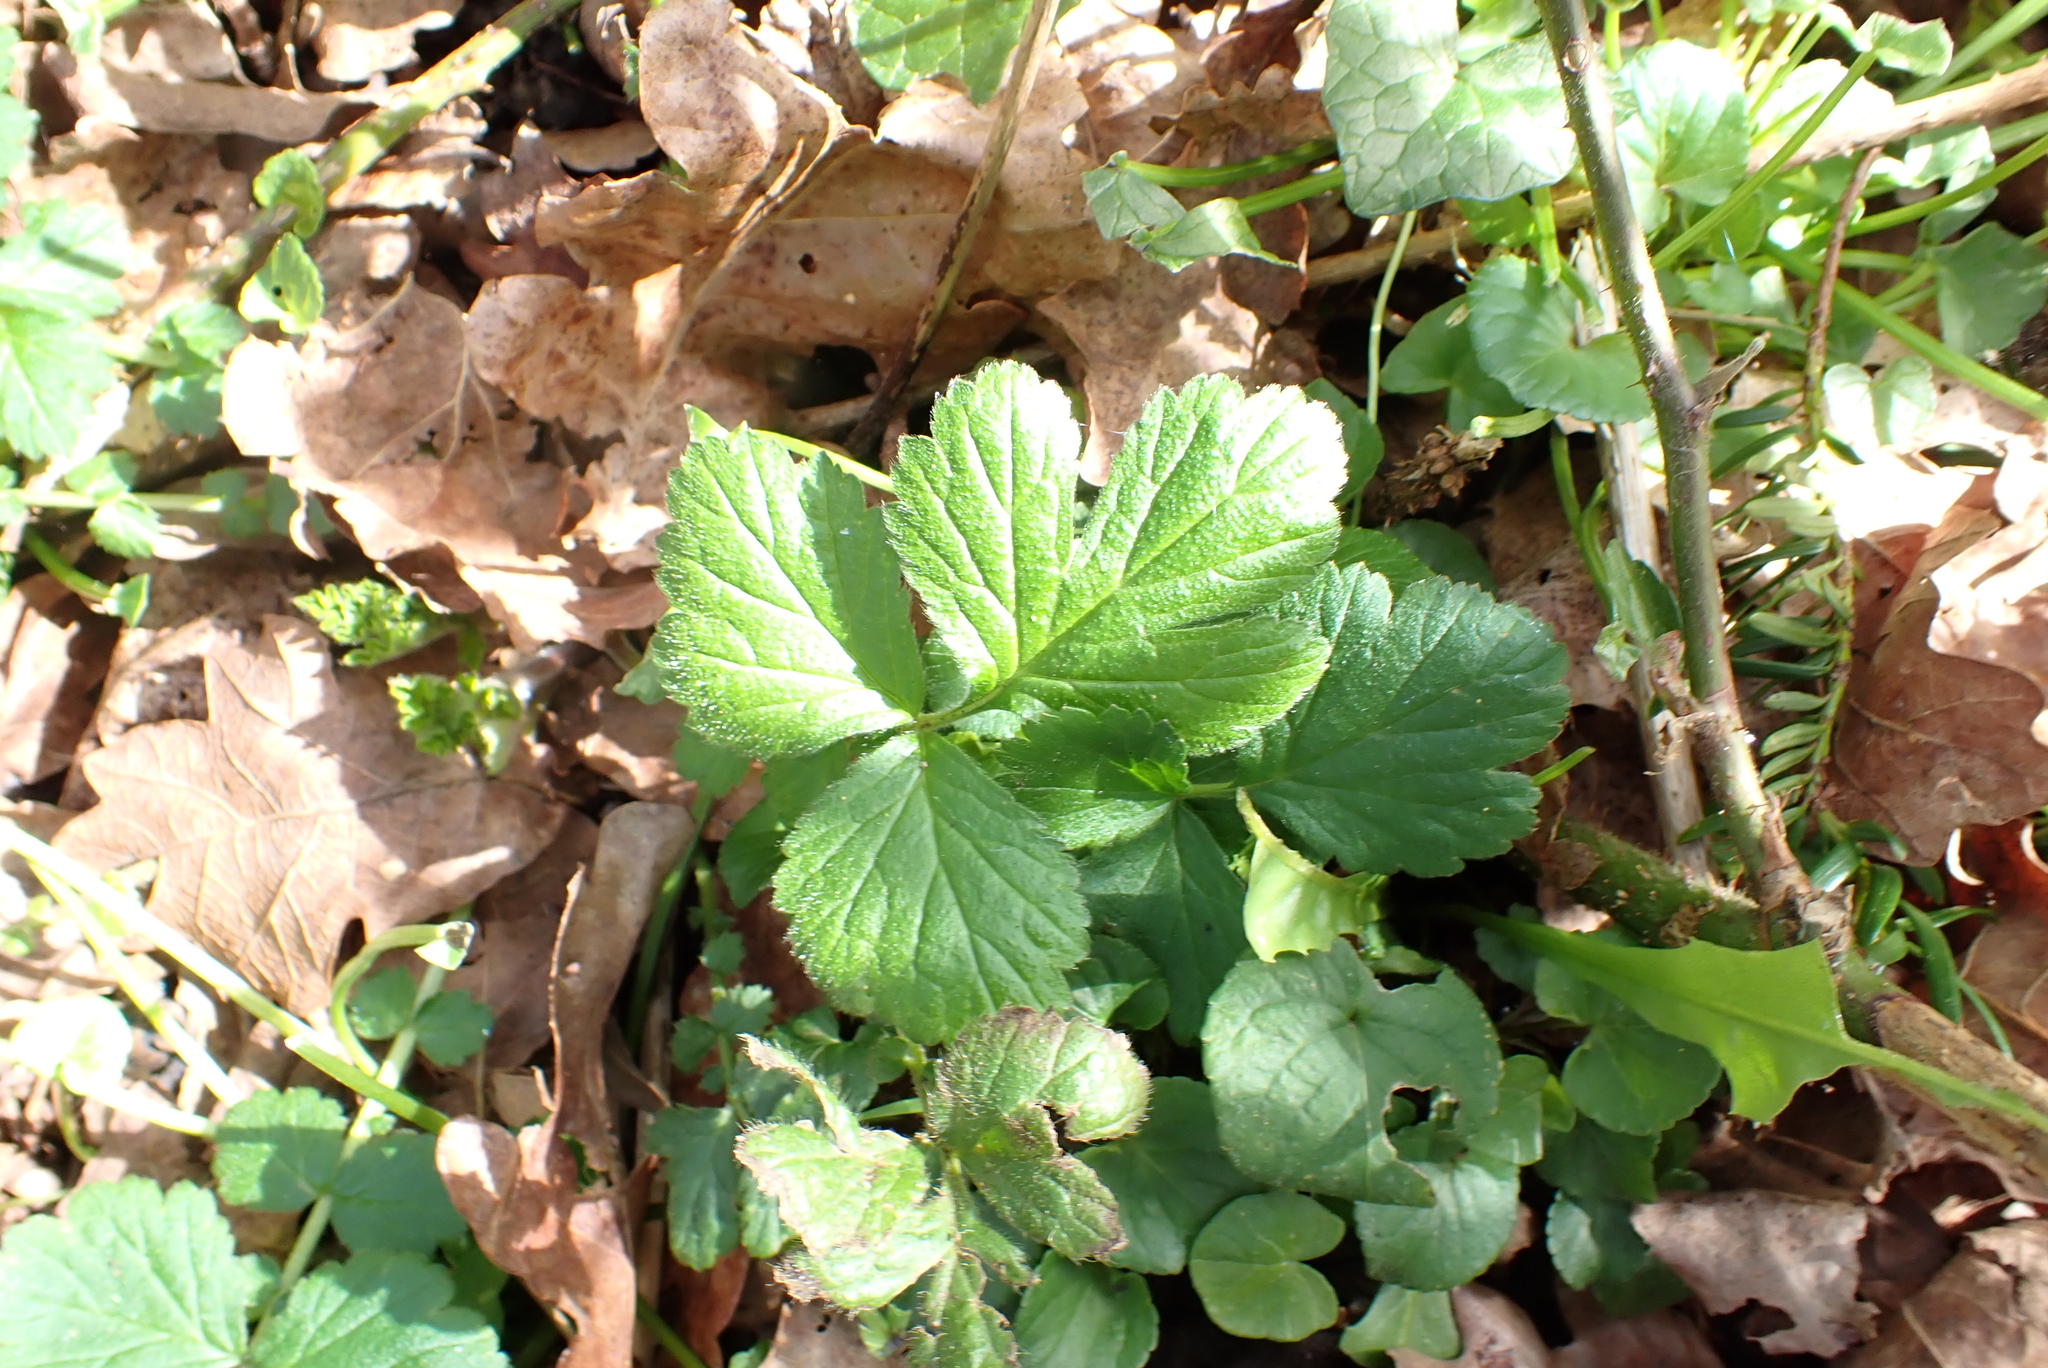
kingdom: Plantae
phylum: Tracheophyta
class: Magnoliopsida
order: Rosales
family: Rosaceae
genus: Geum
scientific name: Geum urbanum
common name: Wood avens
